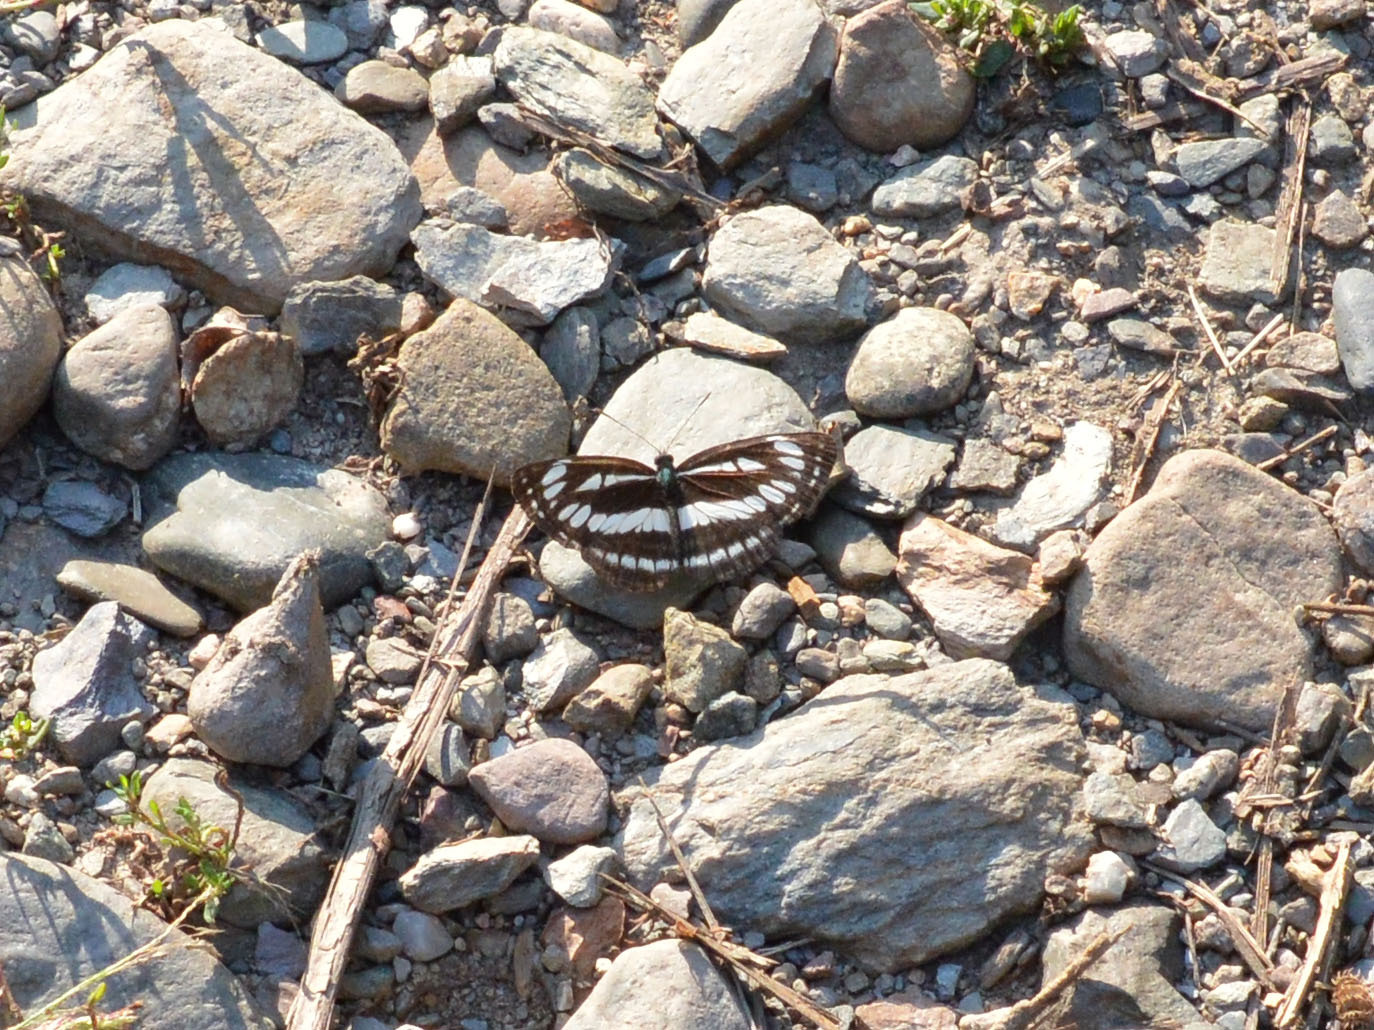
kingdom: Animalia
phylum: Arthropoda
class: Insecta
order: Lepidoptera
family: Nymphalidae
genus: Neptis
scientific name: Neptis sappho
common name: Common glider
